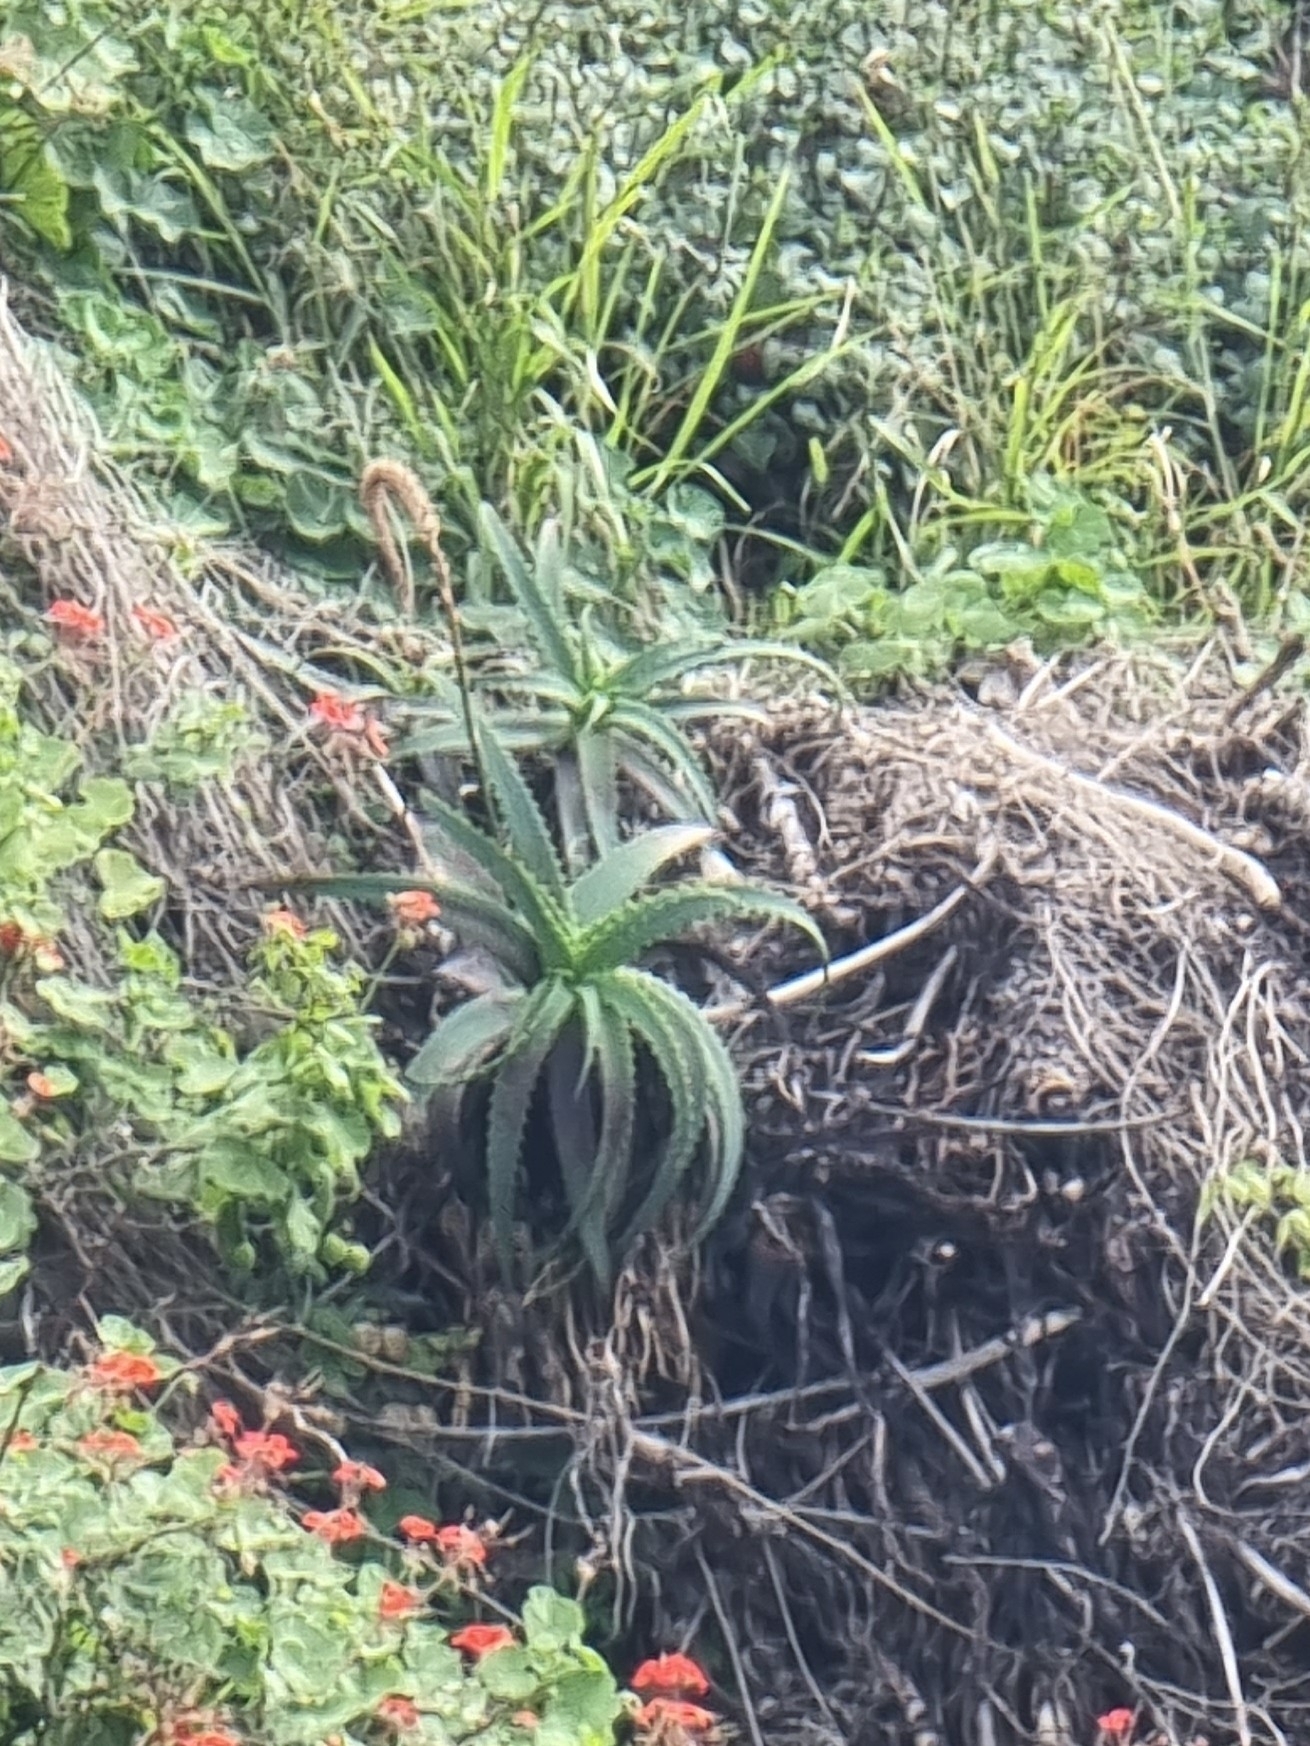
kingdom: Plantae
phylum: Tracheophyta
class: Liliopsida
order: Asparagales
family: Asphodelaceae
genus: Aloe
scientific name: Aloe arborescens
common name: Candelabra aloe
